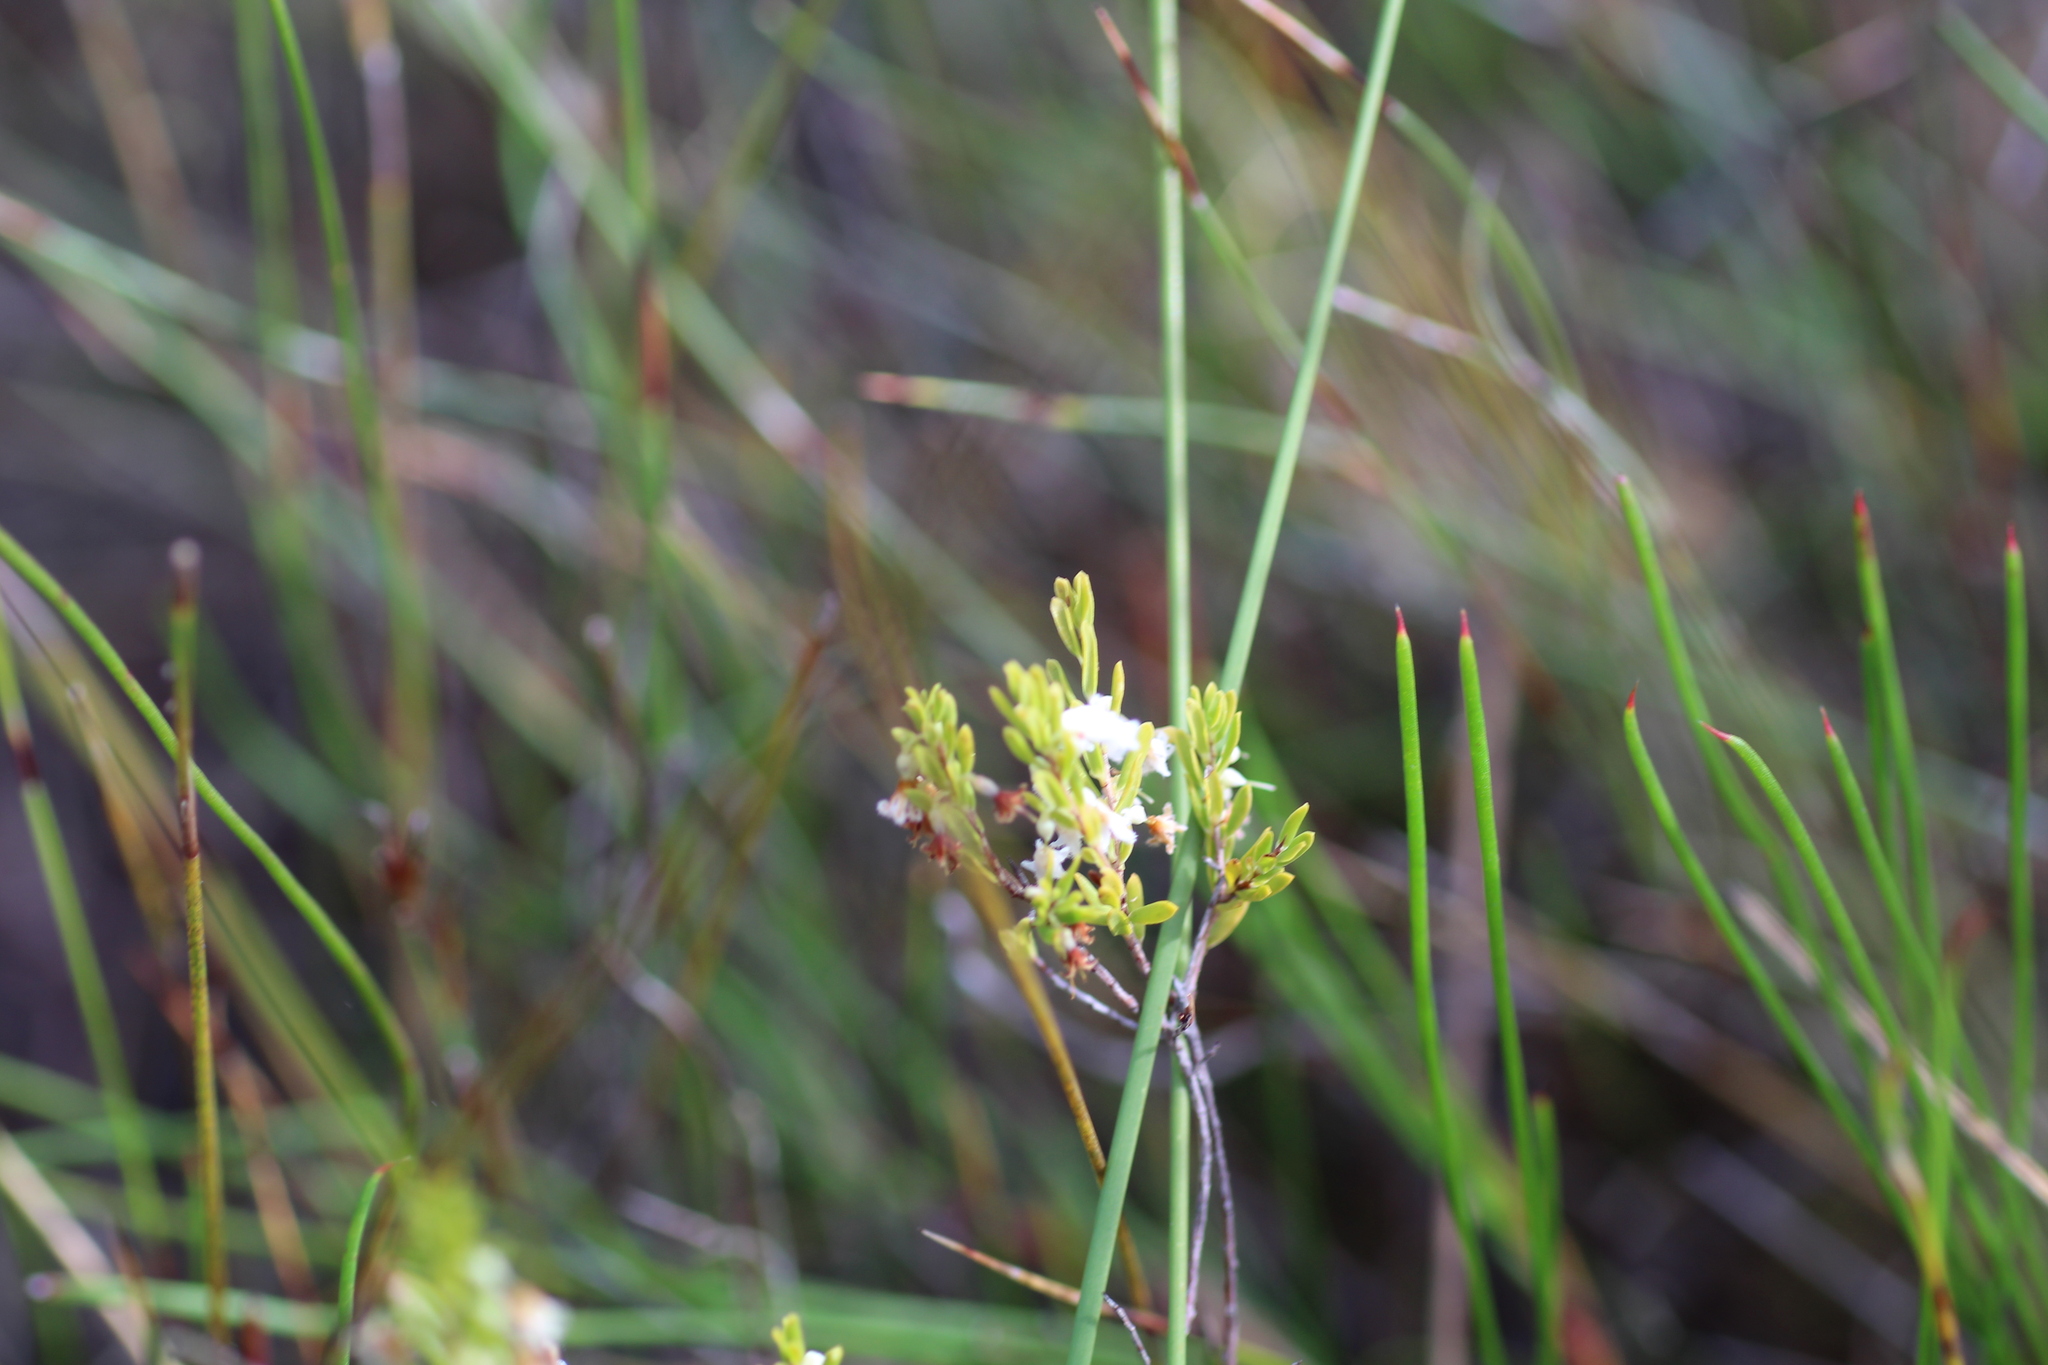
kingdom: Plantae
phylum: Tracheophyta
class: Magnoliopsida
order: Ericales
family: Ericaceae
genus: Styphelia
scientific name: Styphelia pendula
